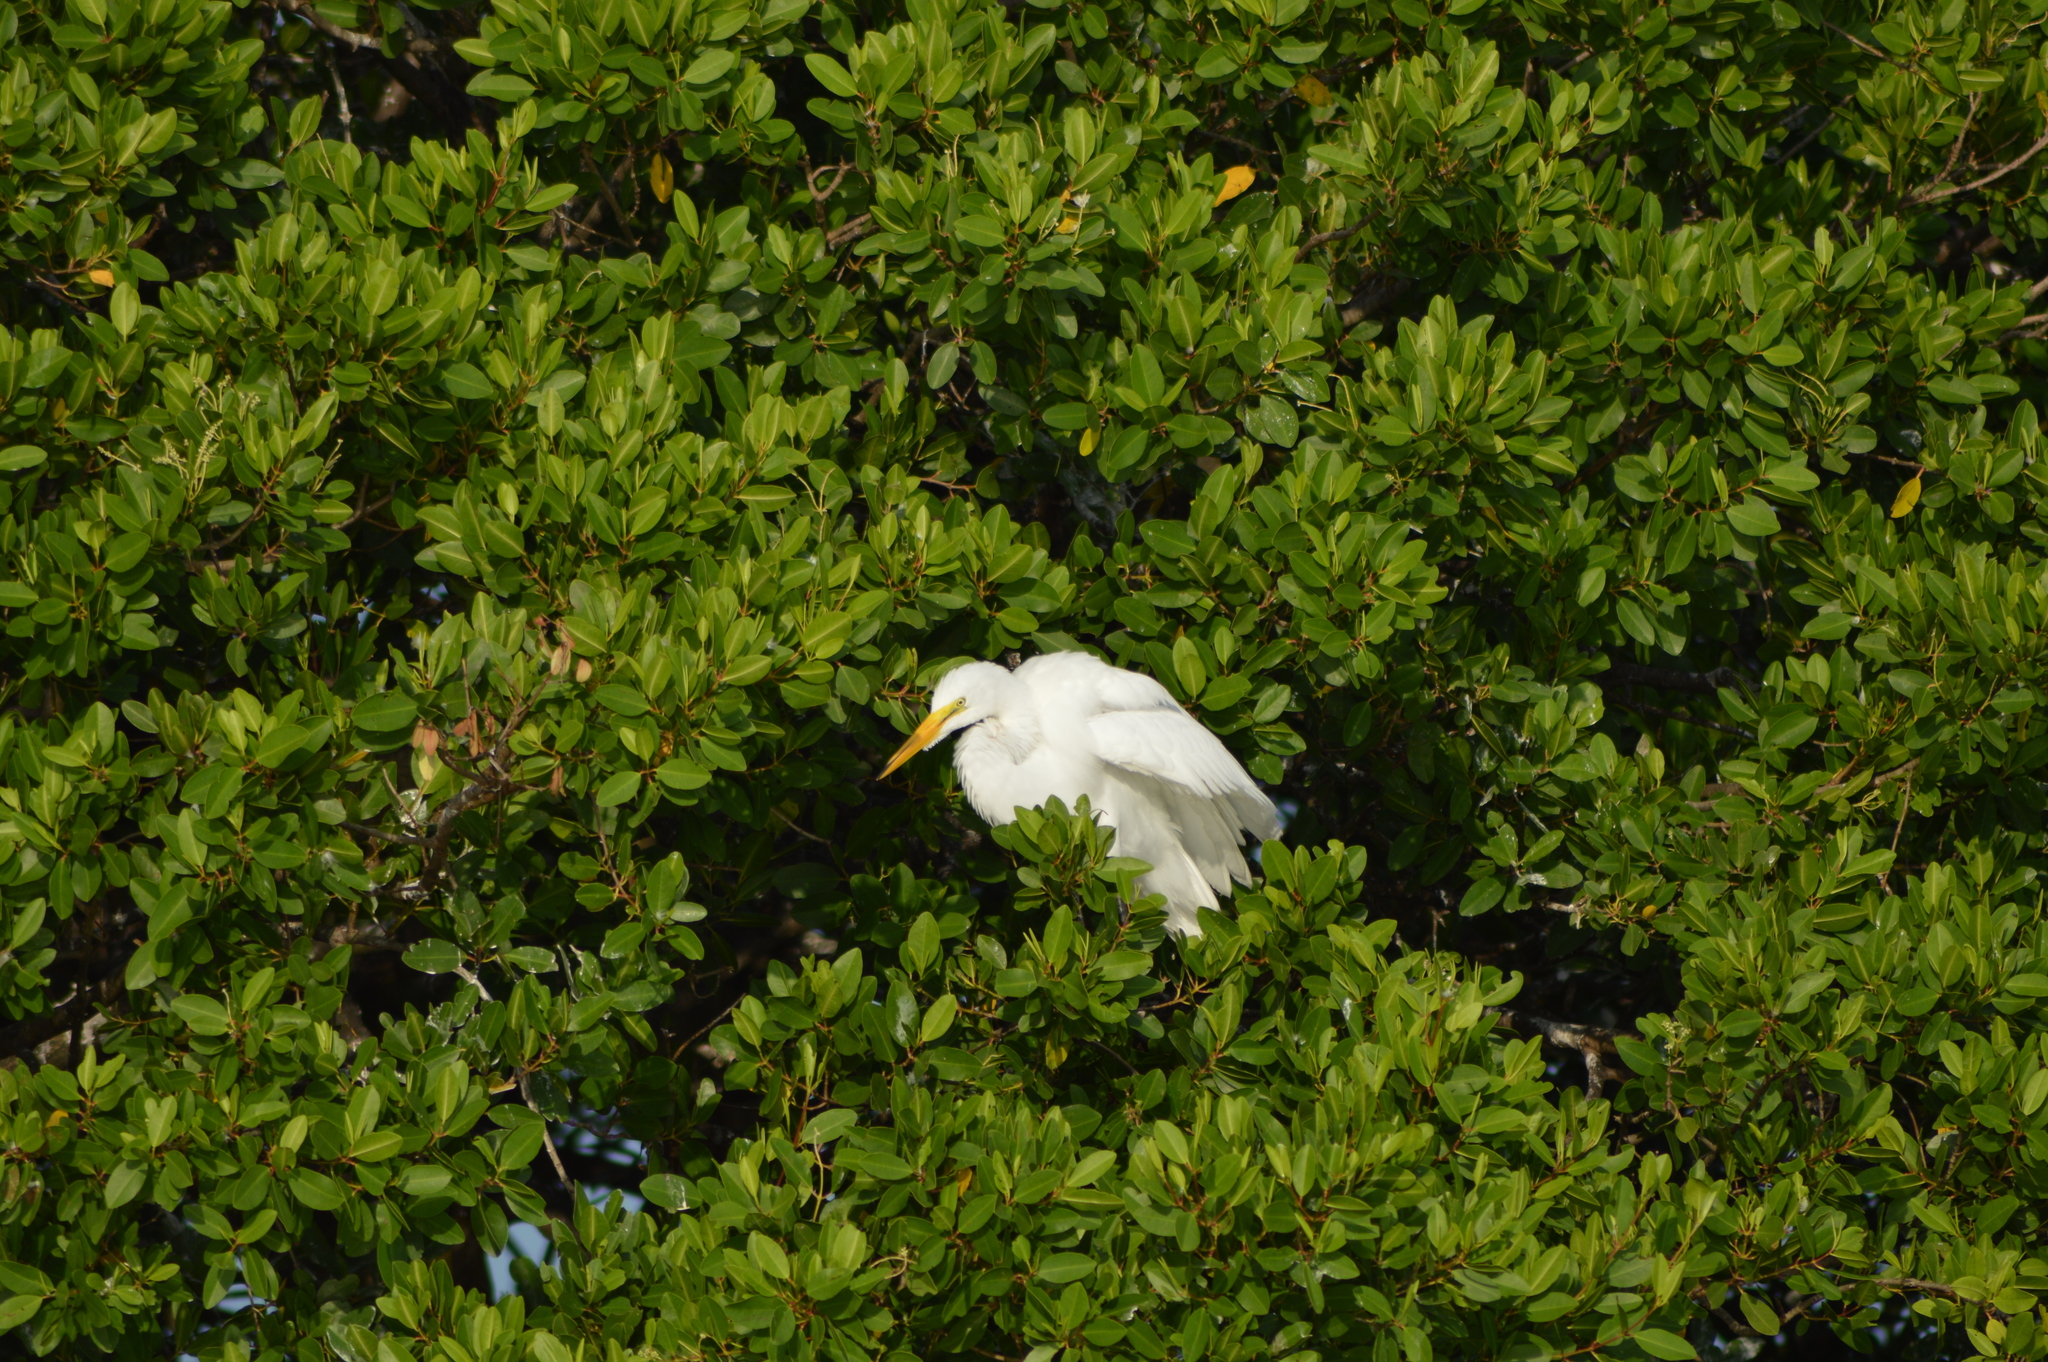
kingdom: Animalia
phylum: Chordata
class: Aves
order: Pelecaniformes
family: Ardeidae
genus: Ardea
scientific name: Ardea alba
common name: Great egret
